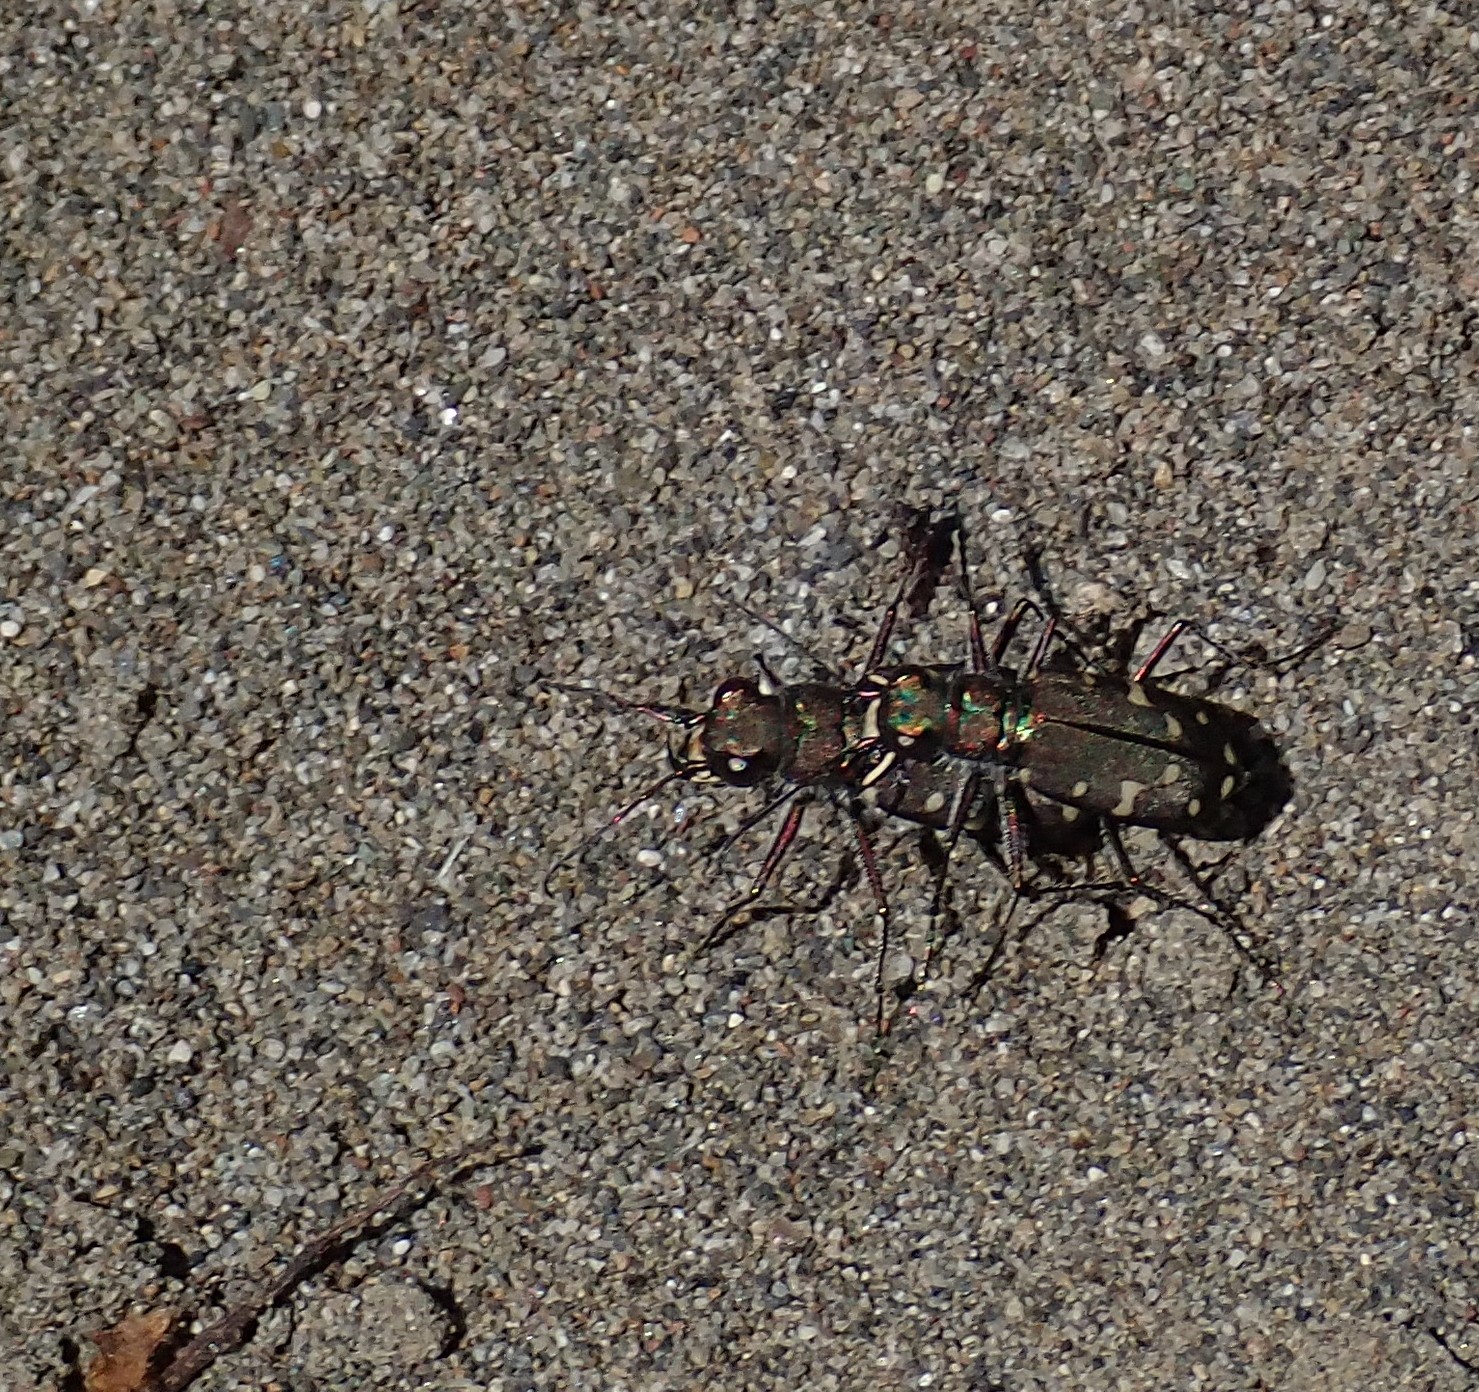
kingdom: Animalia
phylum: Arthropoda
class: Insecta
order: Coleoptera
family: Carabidae
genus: Cicindela
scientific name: Cicindela oregona
